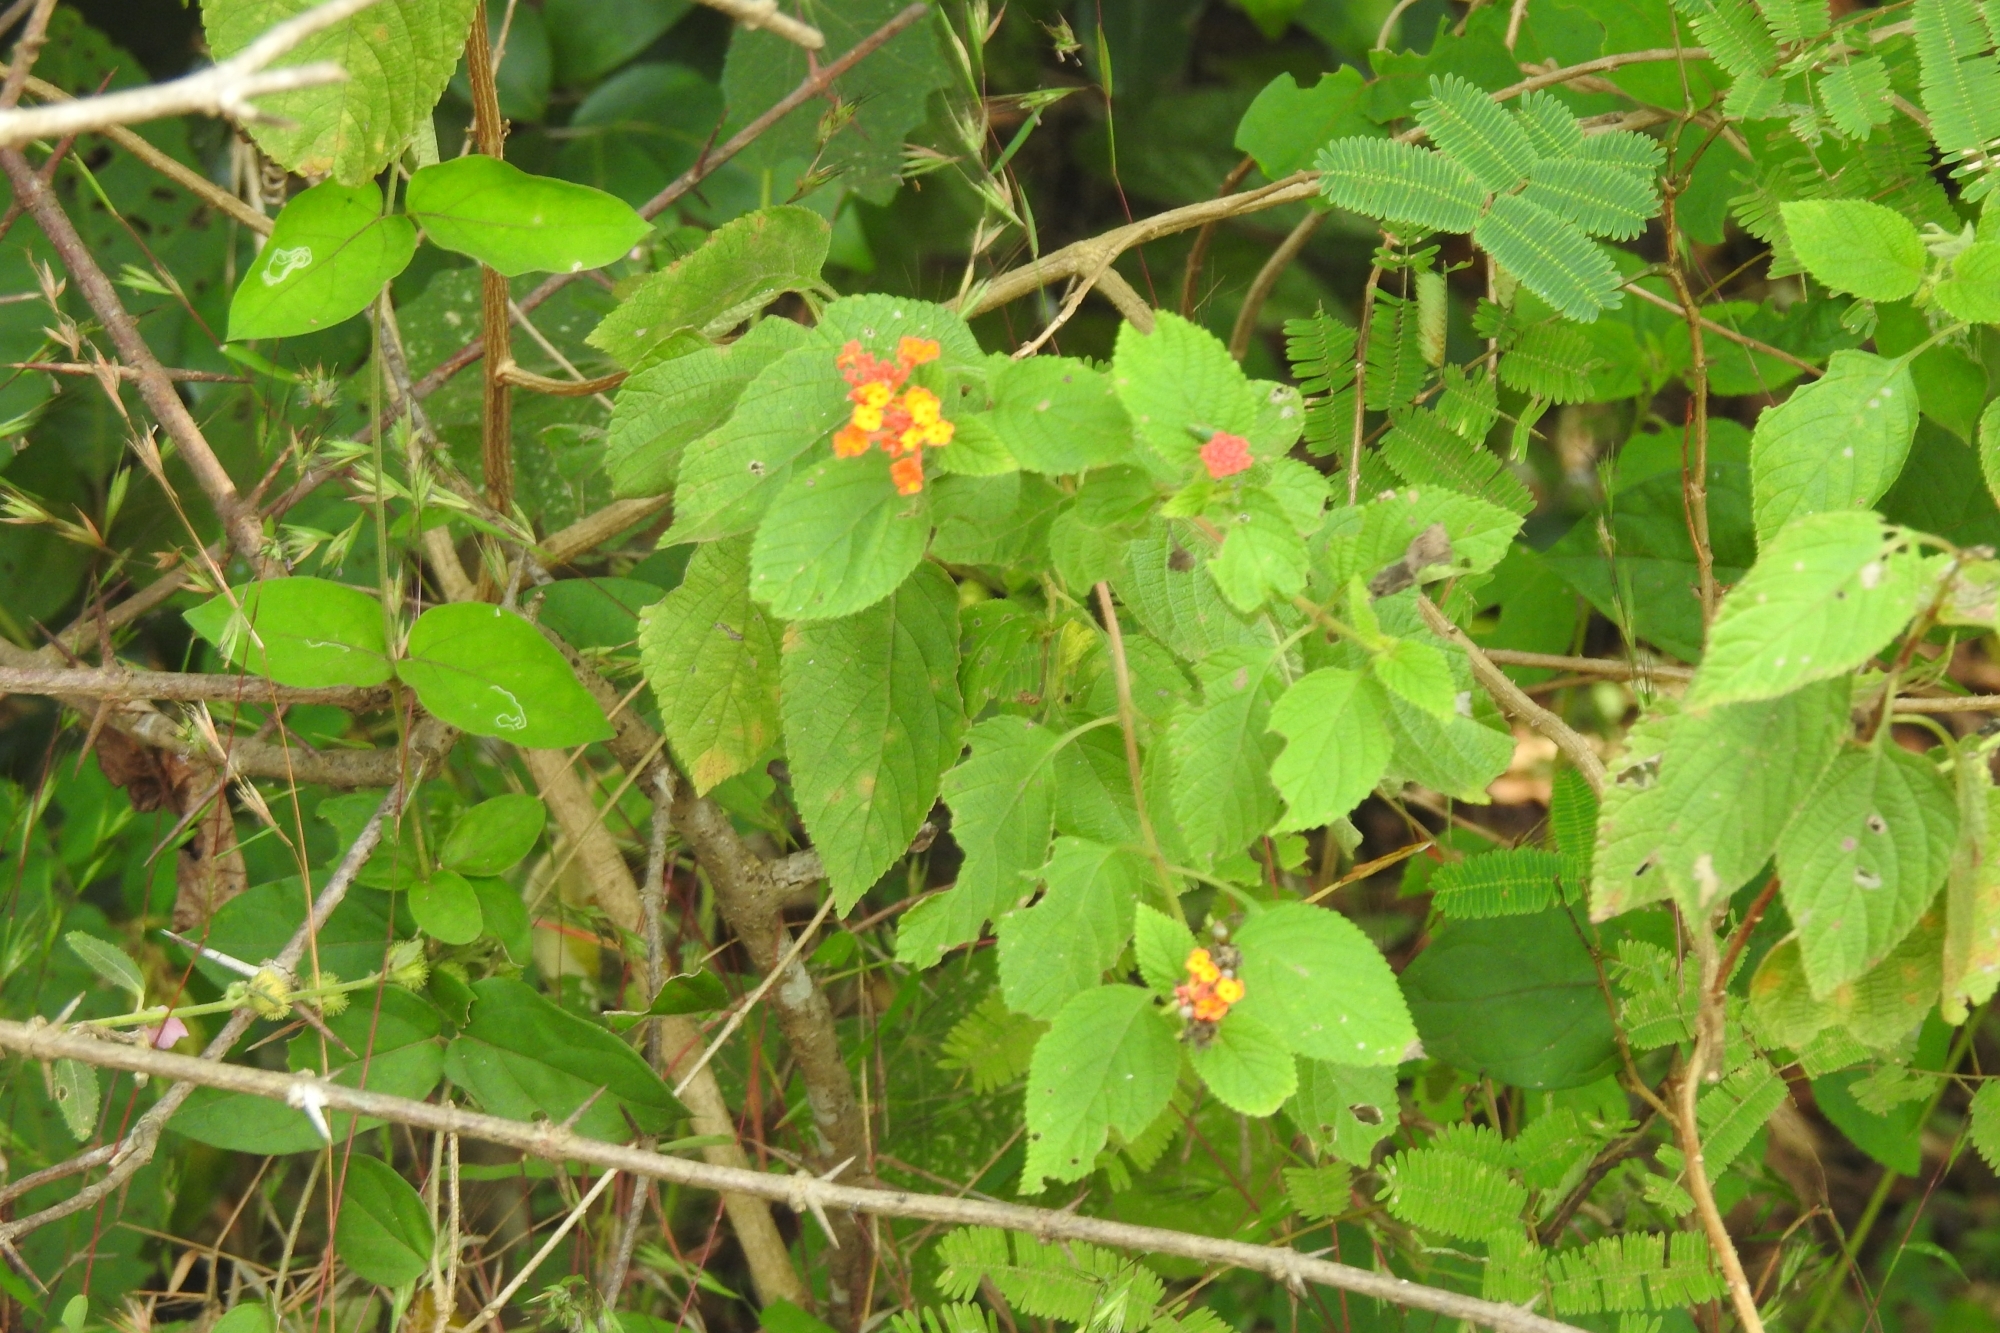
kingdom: Plantae
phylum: Tracheophyta
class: Magnoliopsida
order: Lamiales
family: Verbenaceae
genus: Lantana
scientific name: Lantana camara
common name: Lantana
